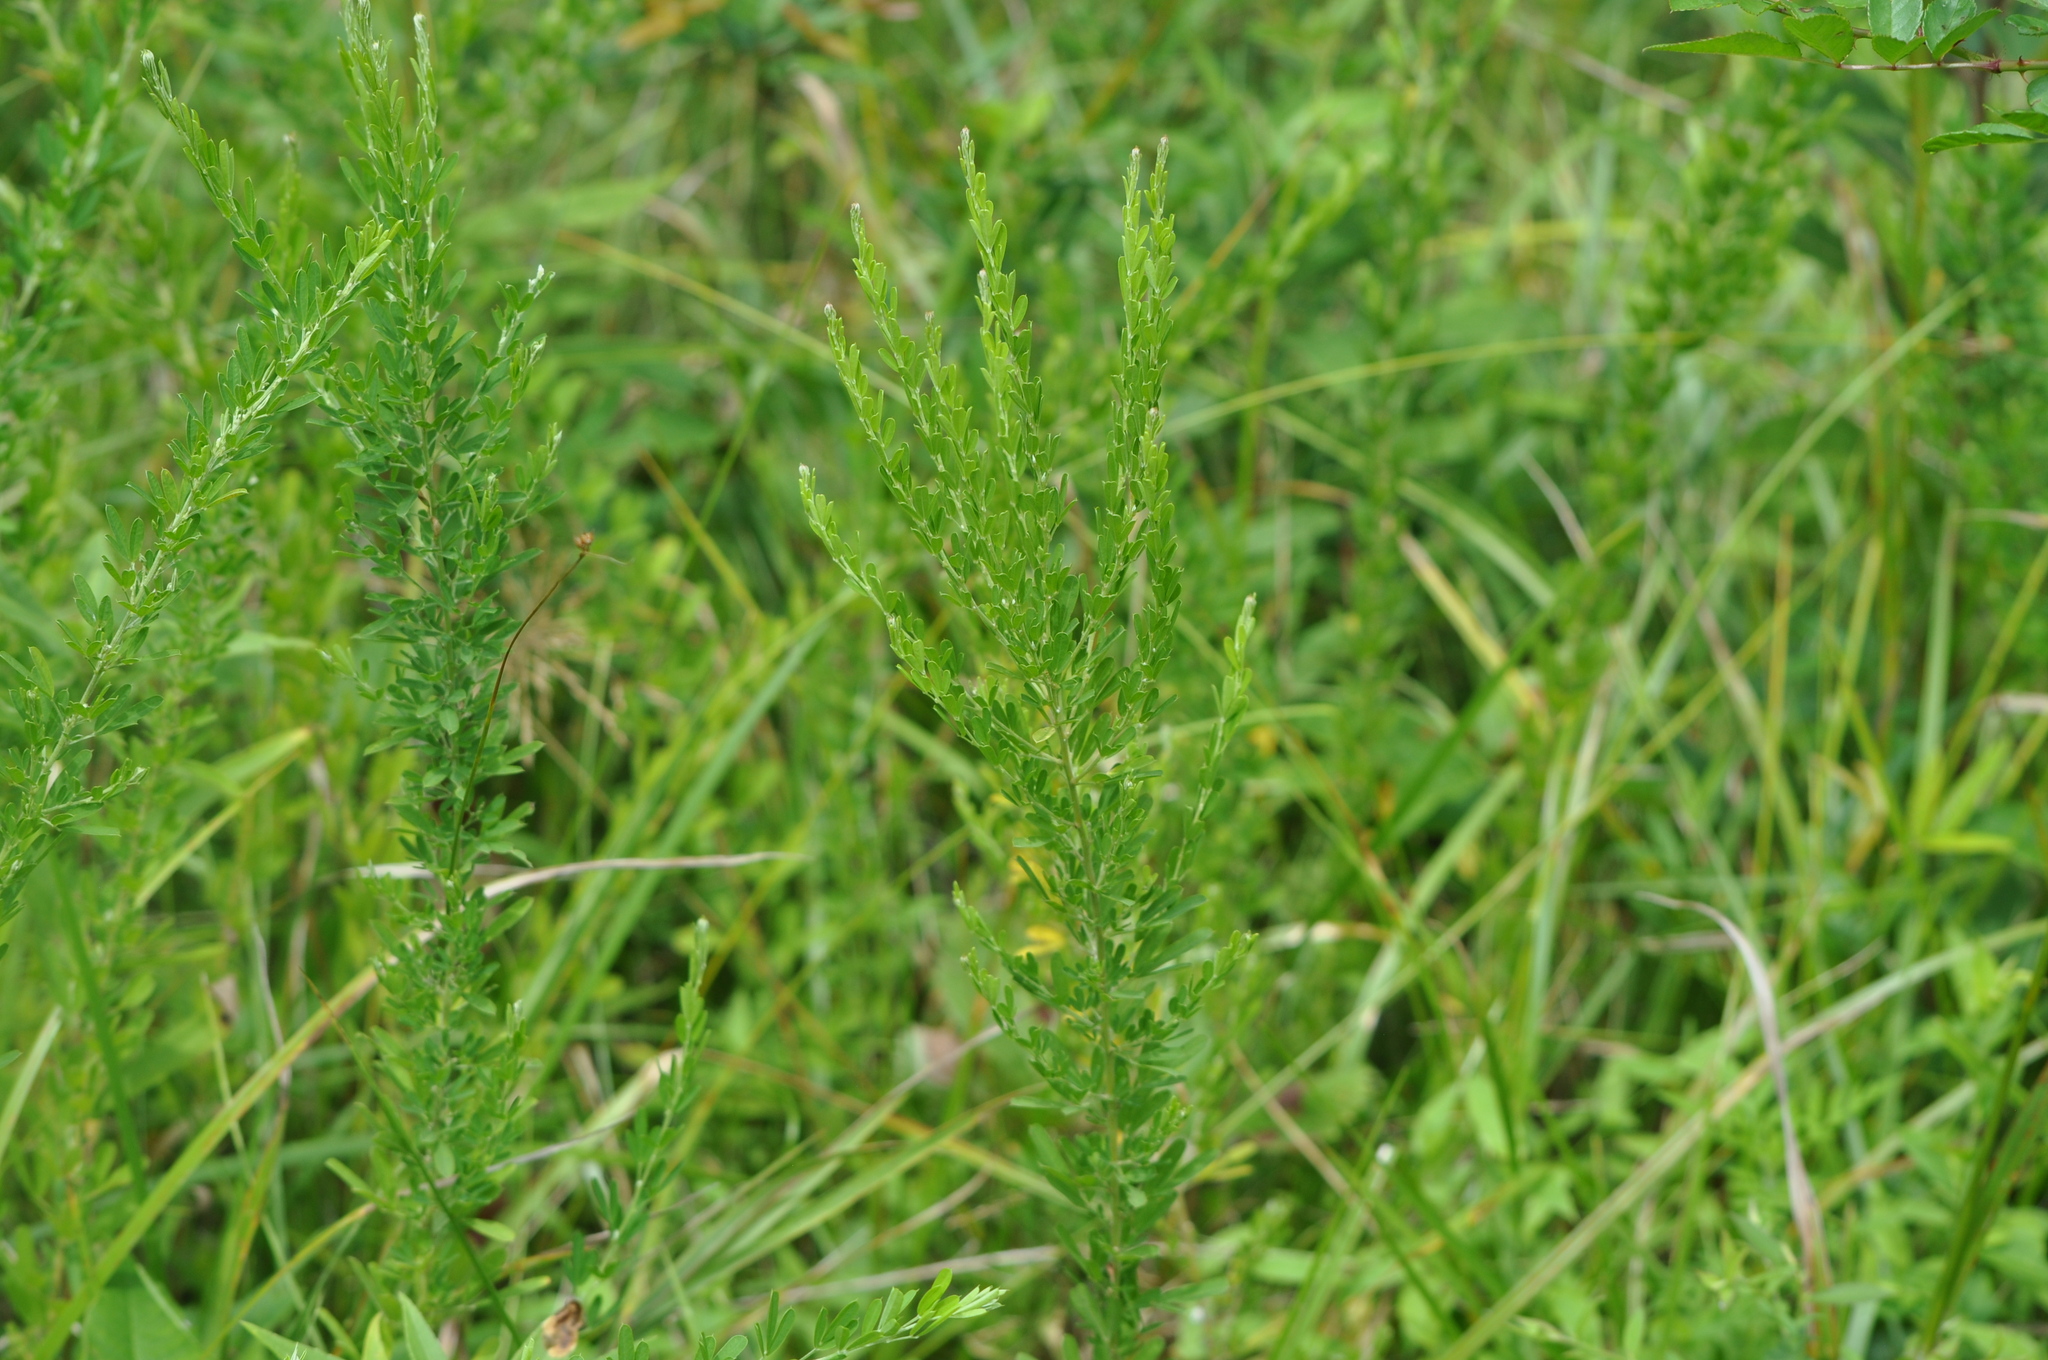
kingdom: Plantae
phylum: Tracheophyta
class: Magnoliopsida
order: Fabales
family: Fabaceae
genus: Lespedeza
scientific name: Lespedeza cuneata
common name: Chinese bush-clover
